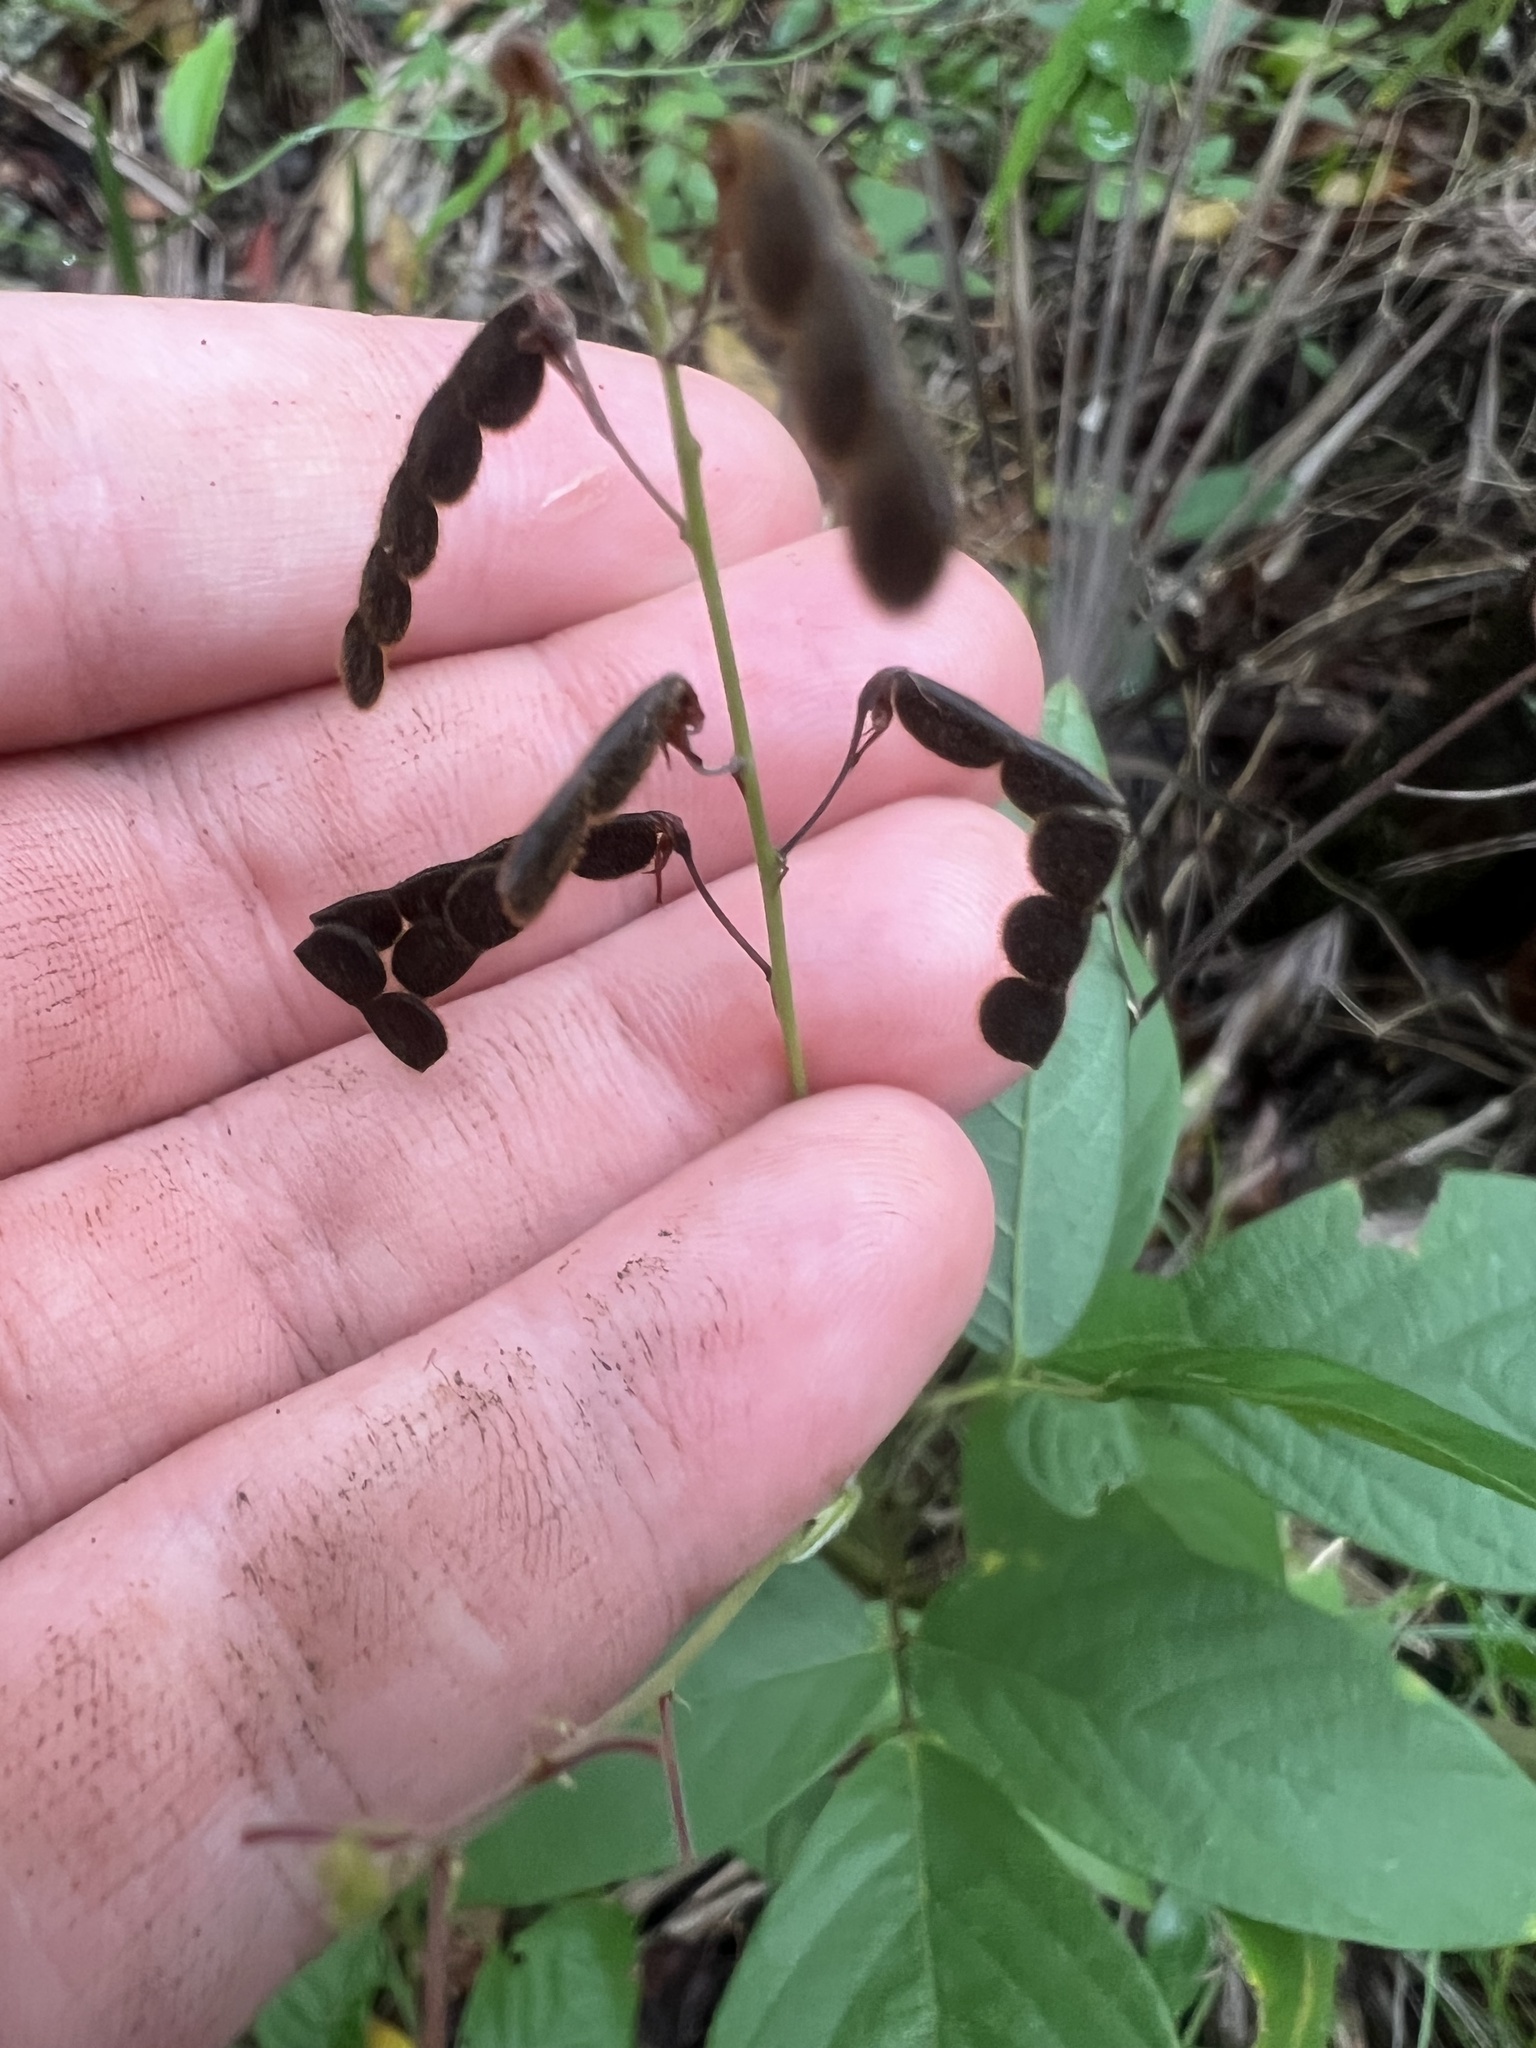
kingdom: Plantae
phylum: Tracheophyta
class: Magnoliopsida
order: Fabales
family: Fabaceae
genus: Desmodium
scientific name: Desmodium incanum
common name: Tickclover
